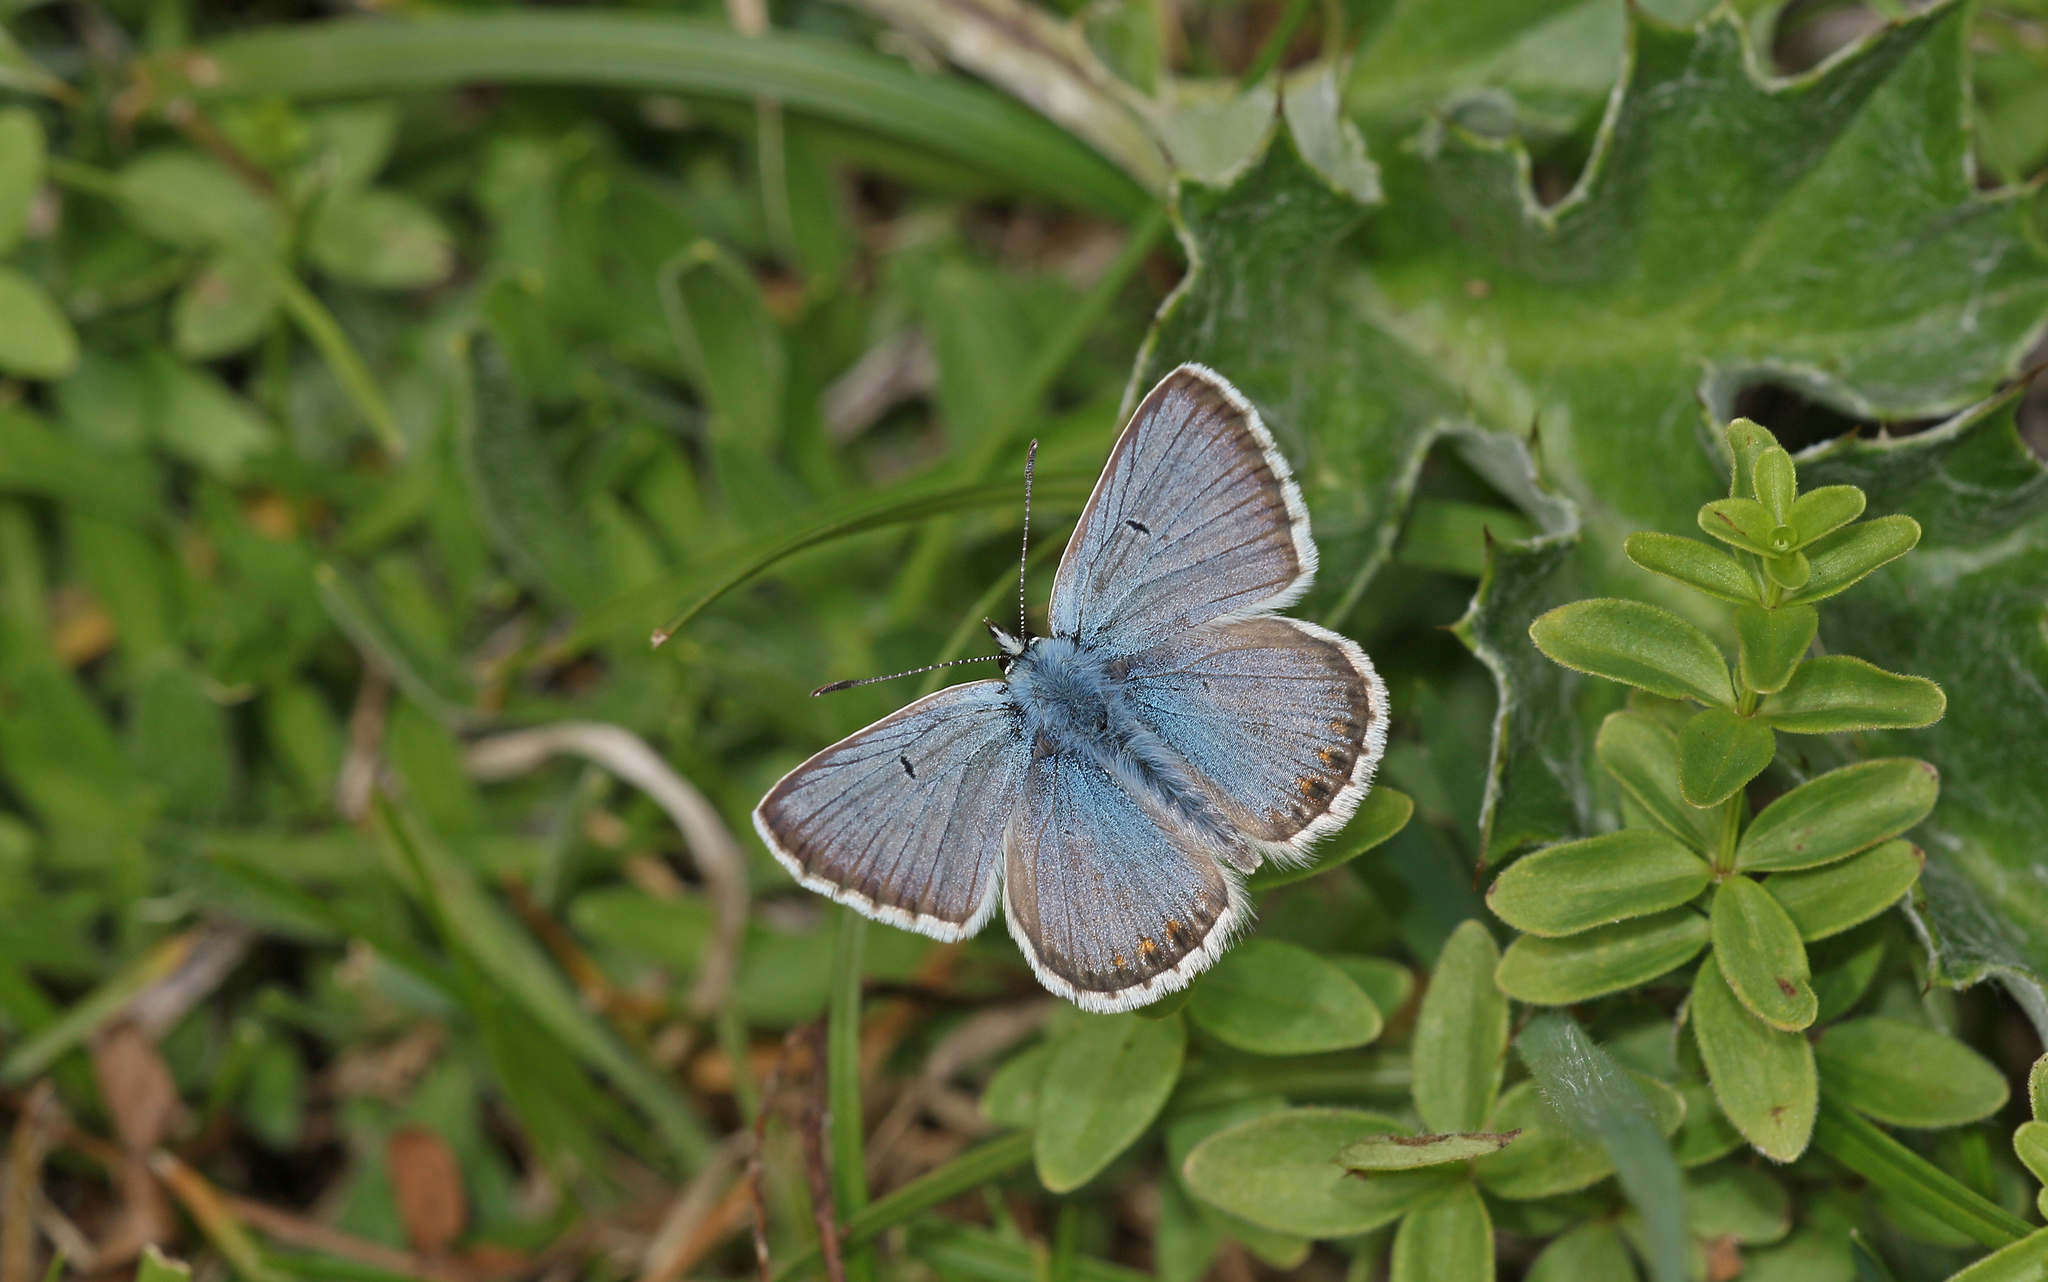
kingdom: Animalia
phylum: Arthropoda
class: Insecta
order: Lepidoptera
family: Lycaenidae
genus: Polyommatus
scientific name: Polyommatus eros
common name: Eros blue
